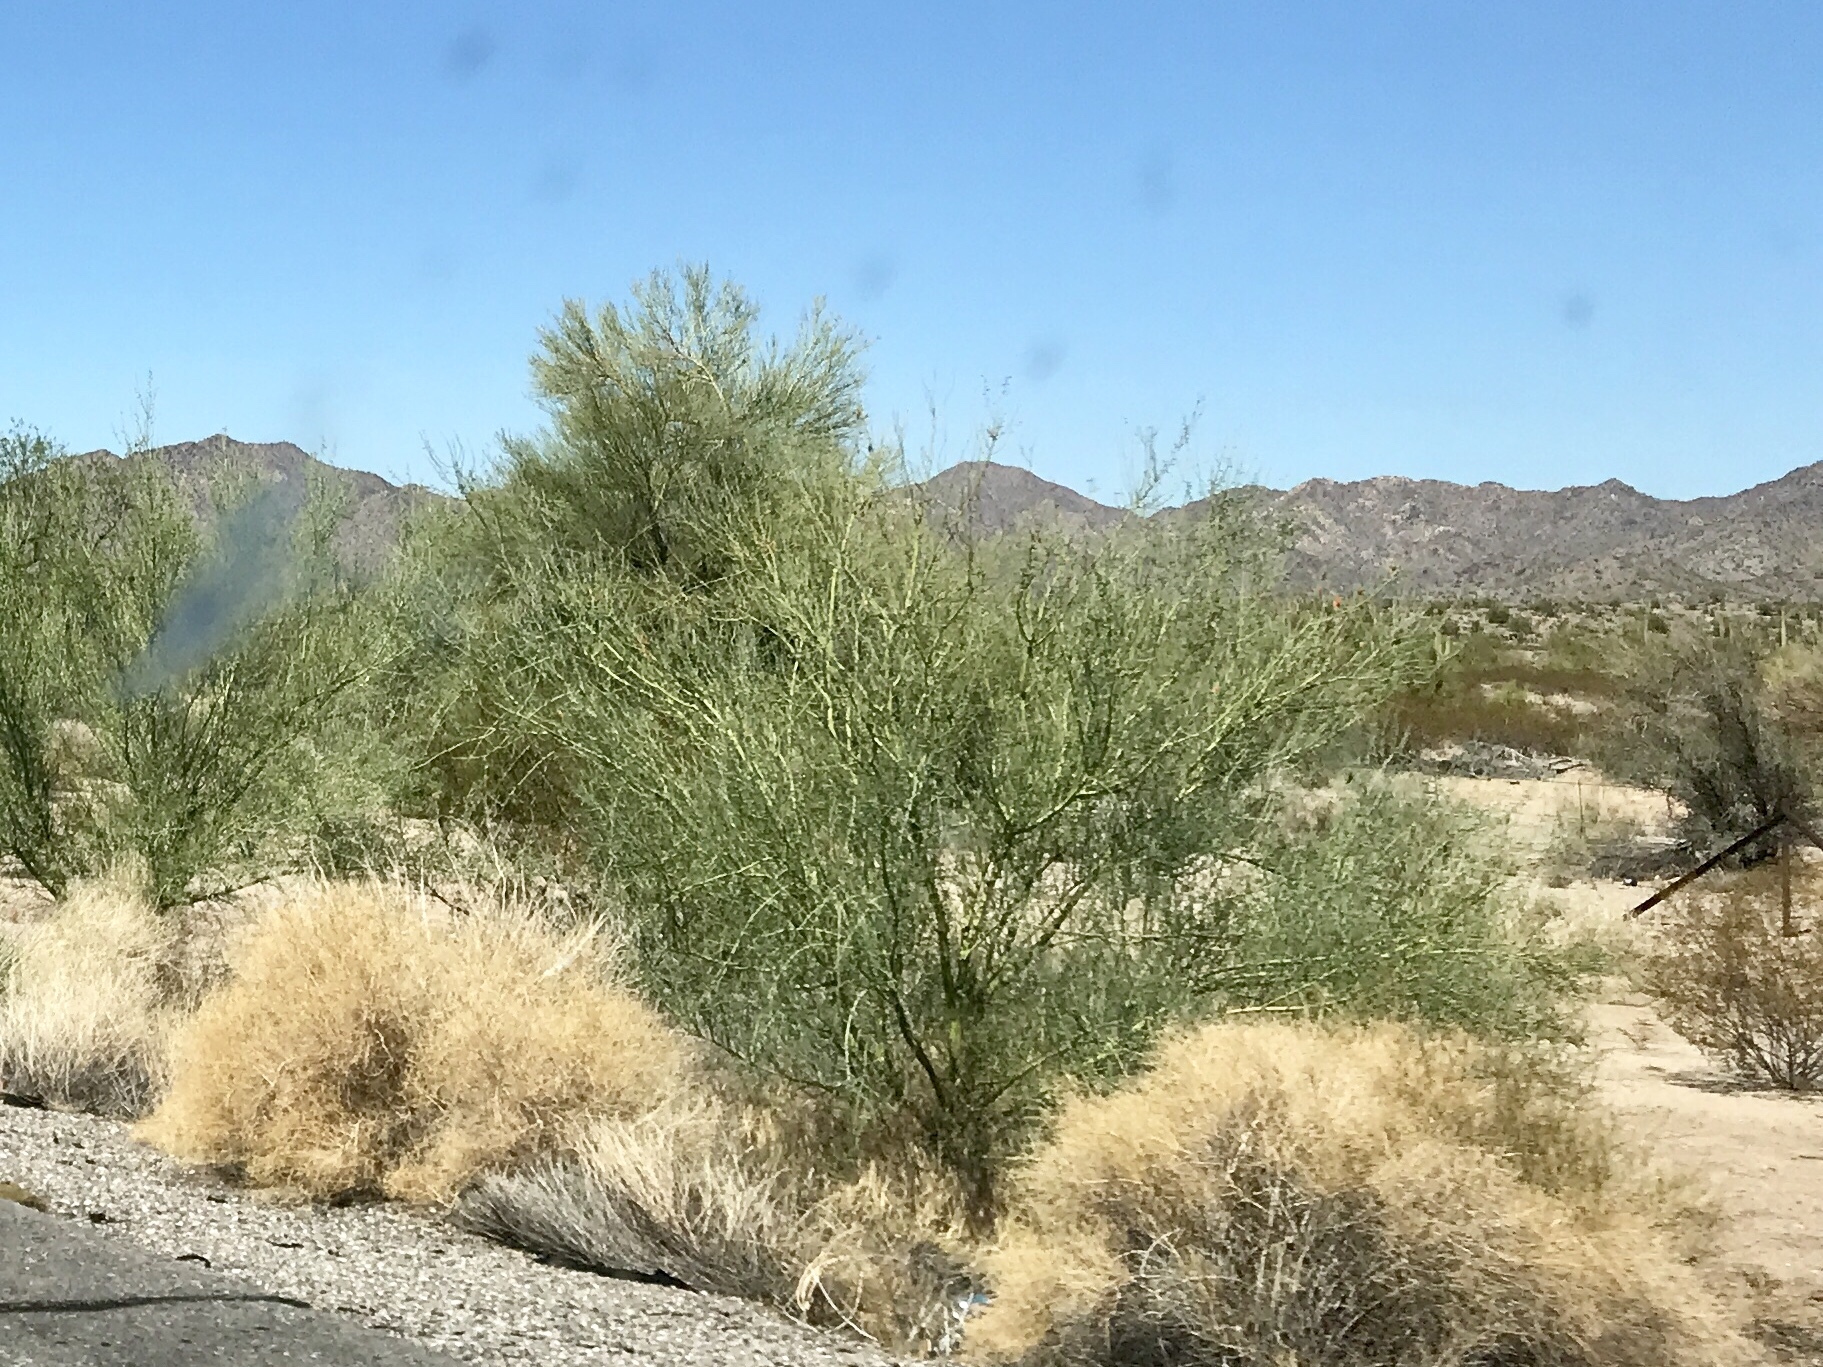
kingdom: Plantae
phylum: Tracheophyta
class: Magnoliopsida
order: Fabales
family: Fabaceae
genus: Parkinsonia
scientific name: Parkinsonia florida
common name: Blue paloverde
